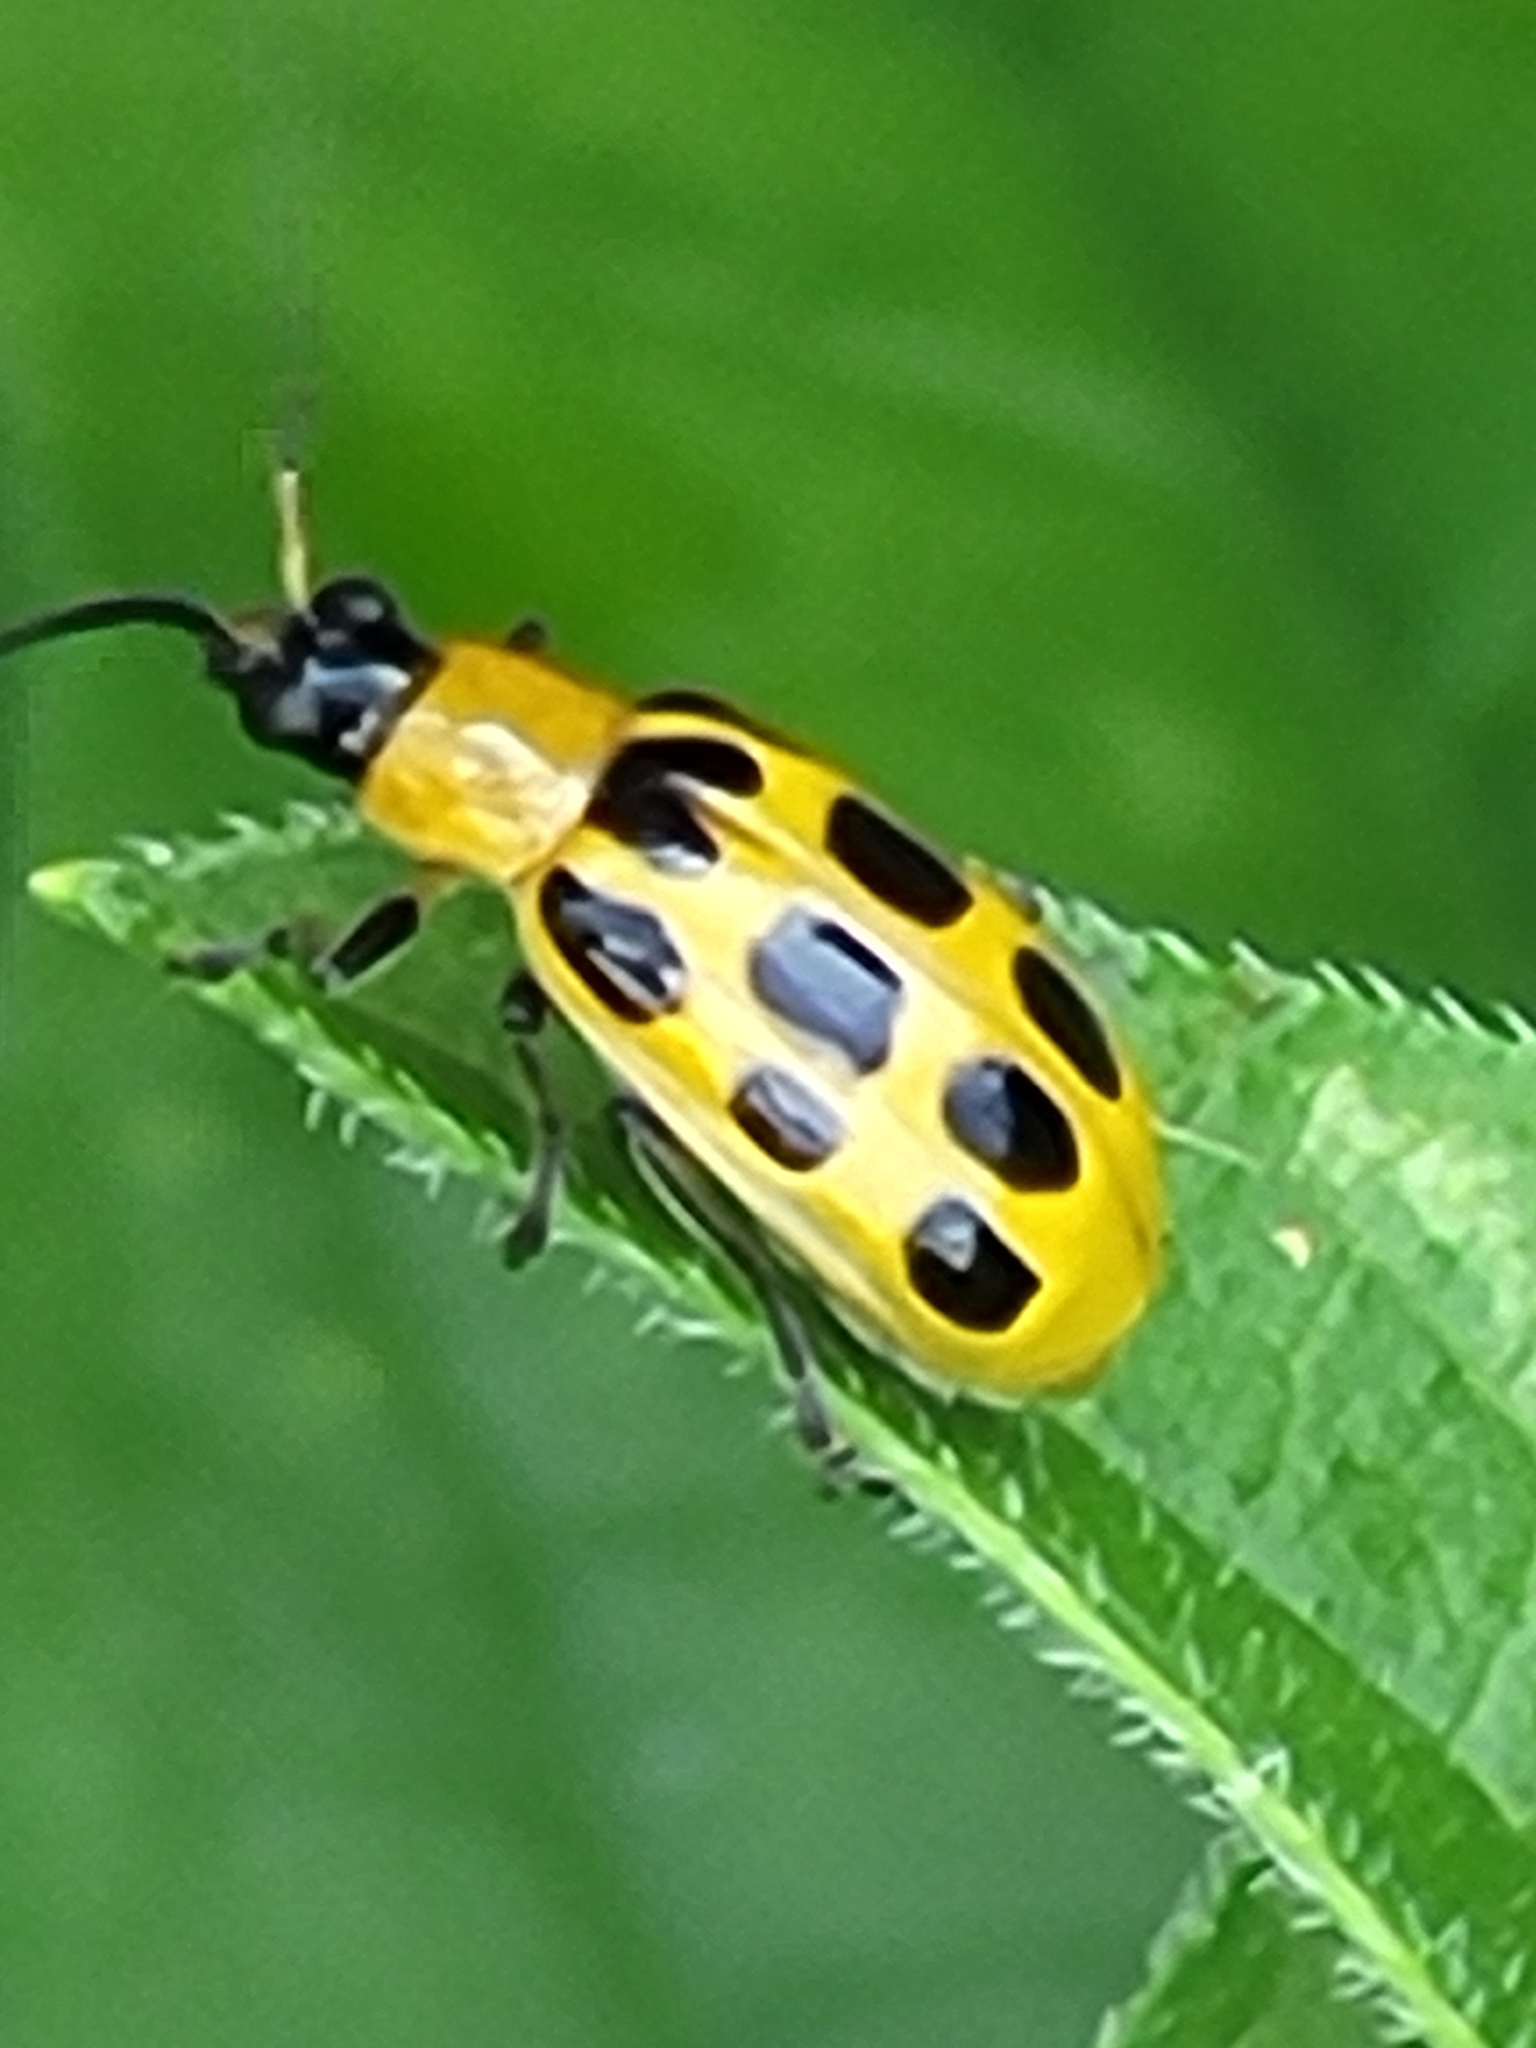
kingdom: Animalia
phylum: Arthropoda
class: Insecta
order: Coleoptera
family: Chrysomelidae
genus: Diabrotica
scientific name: Diabrotica undecimpunctata
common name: Spotted cucumber beetle
